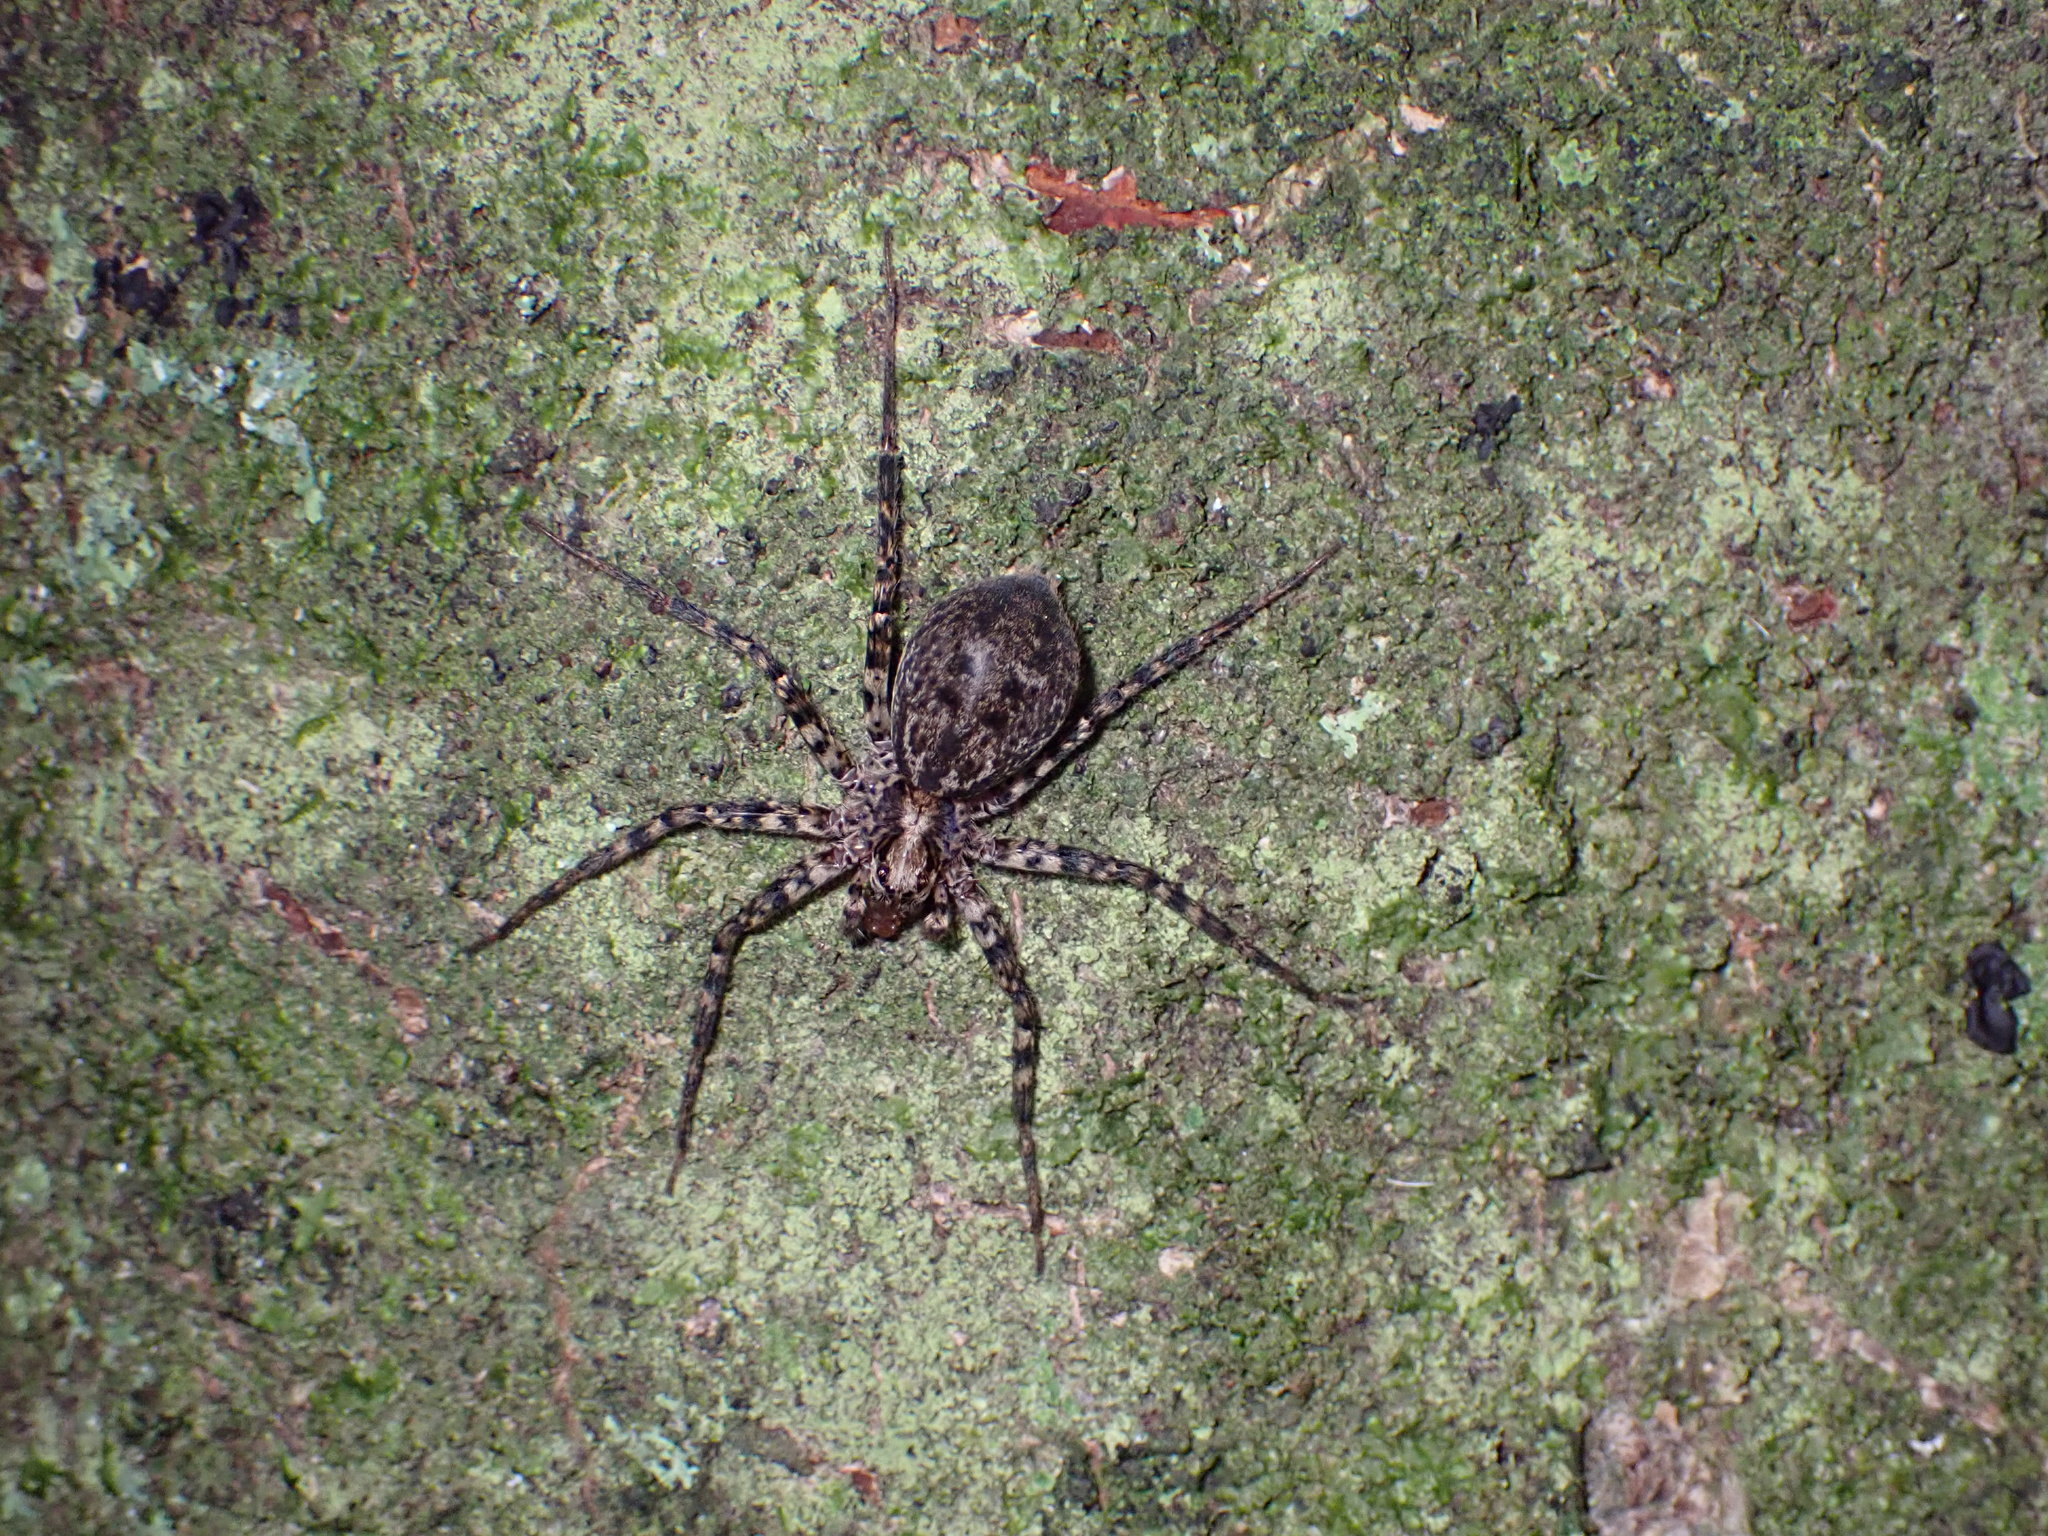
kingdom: Animalia
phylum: Arthropoda
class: Arachnida
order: Araneae
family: Cycloctenidae
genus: Cycloctenus
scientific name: Cycloctenus
